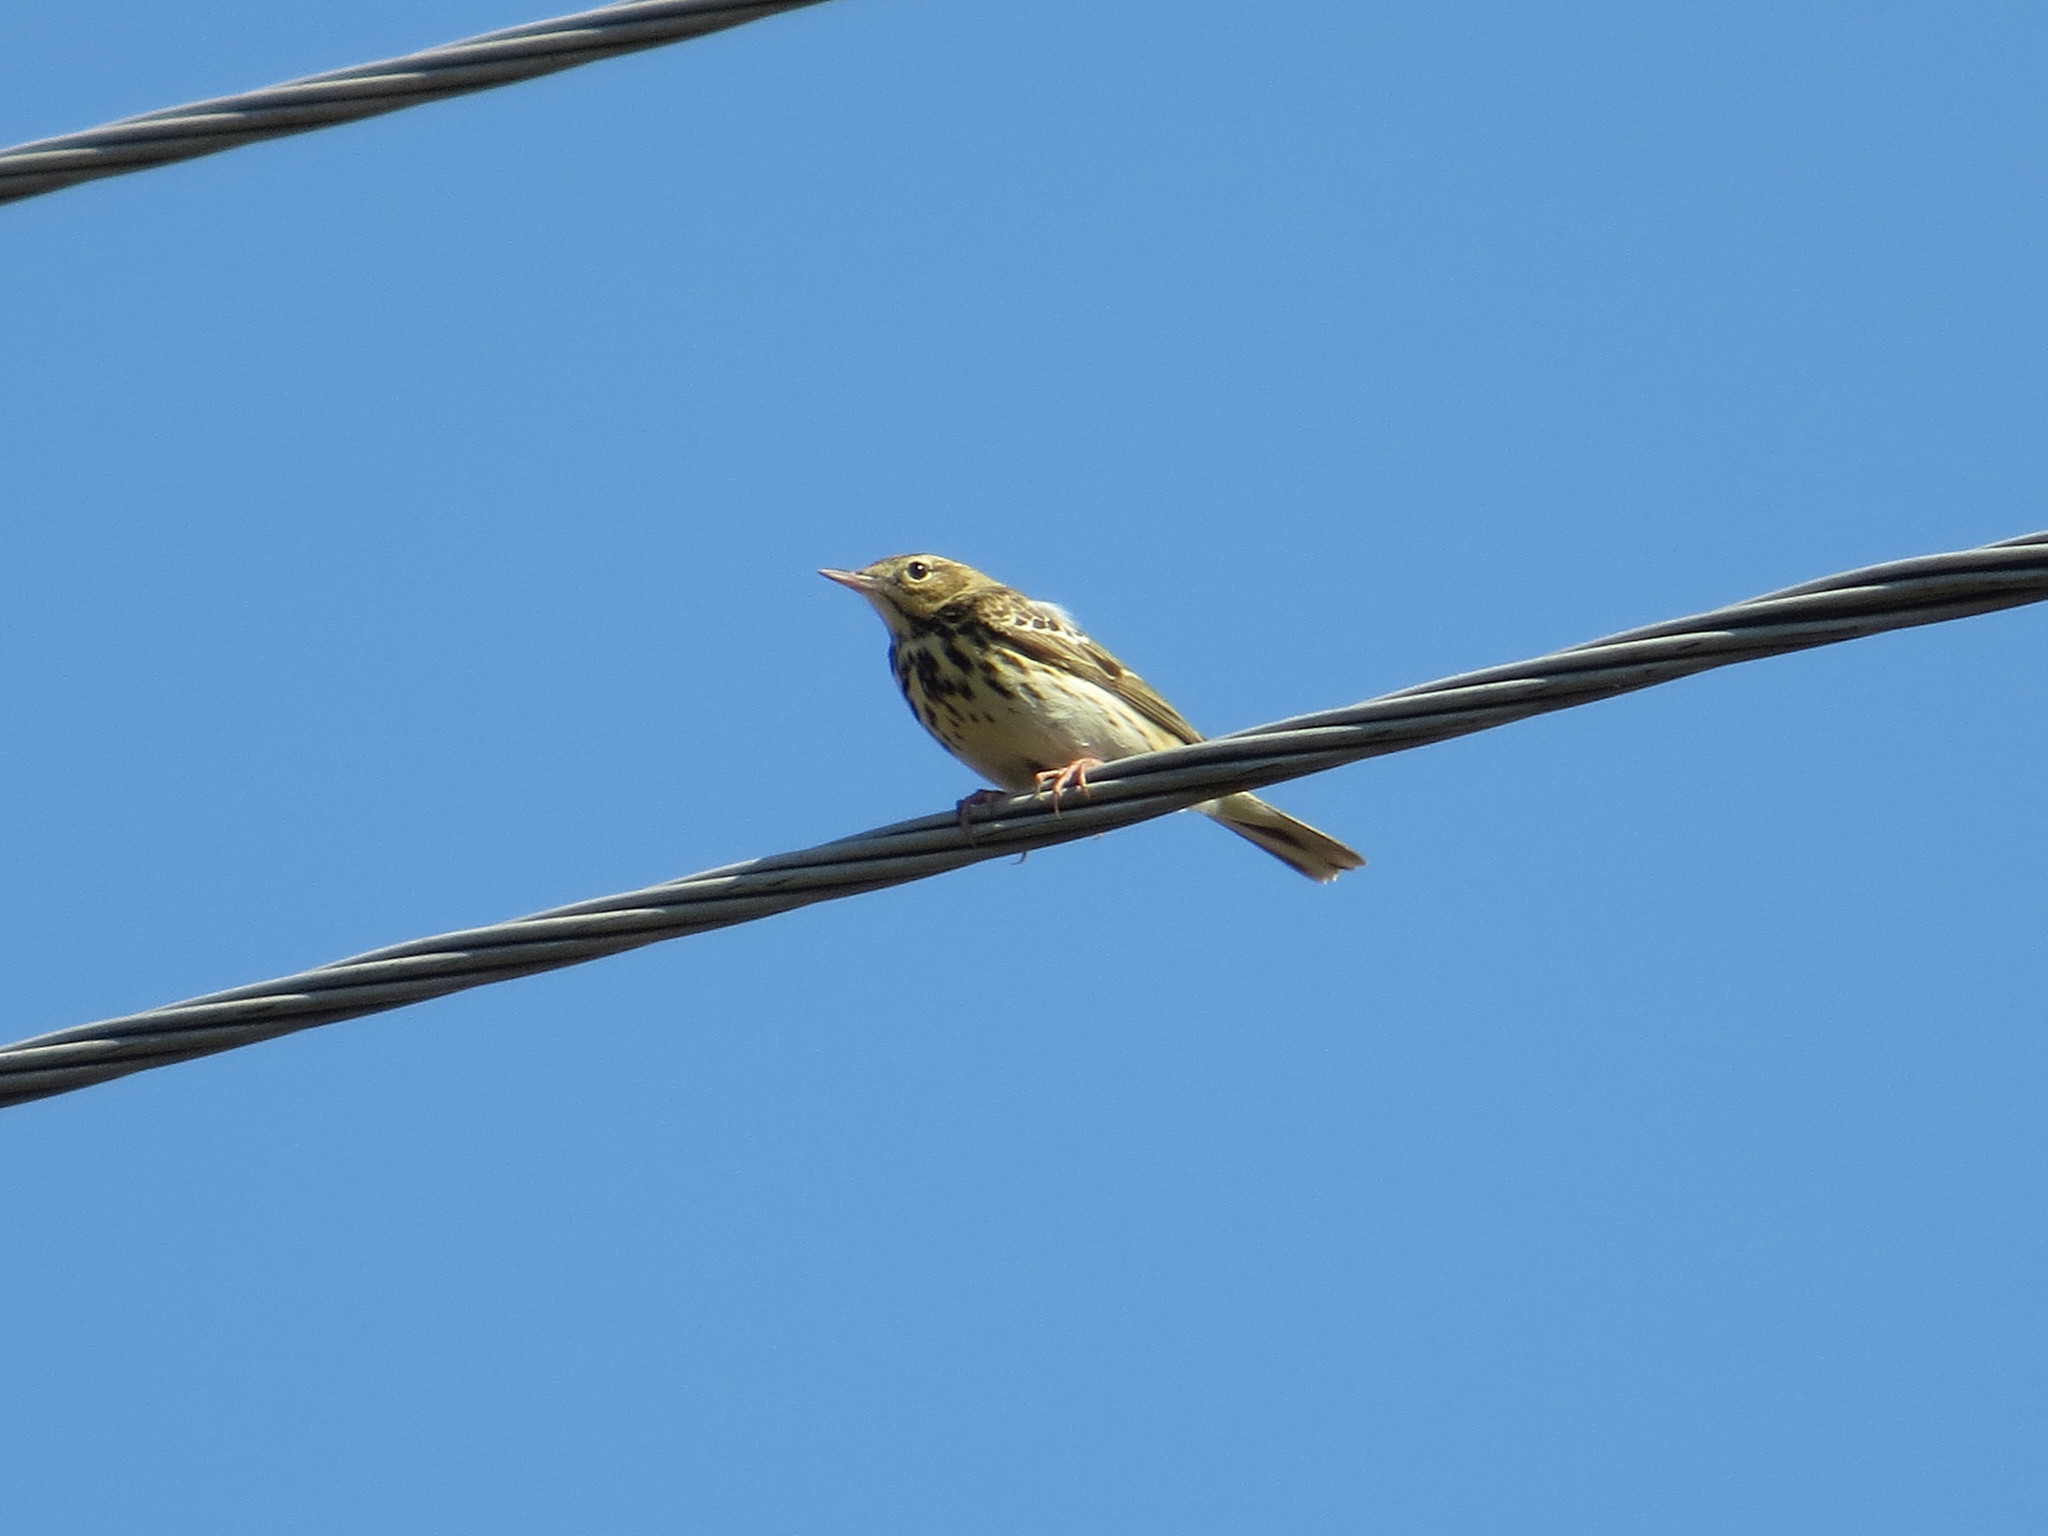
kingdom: Animalia
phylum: Chordata
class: Aves
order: Passeriformes
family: Motacillidae
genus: Anthus
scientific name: Anthus trivialis
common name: Tree pipit
